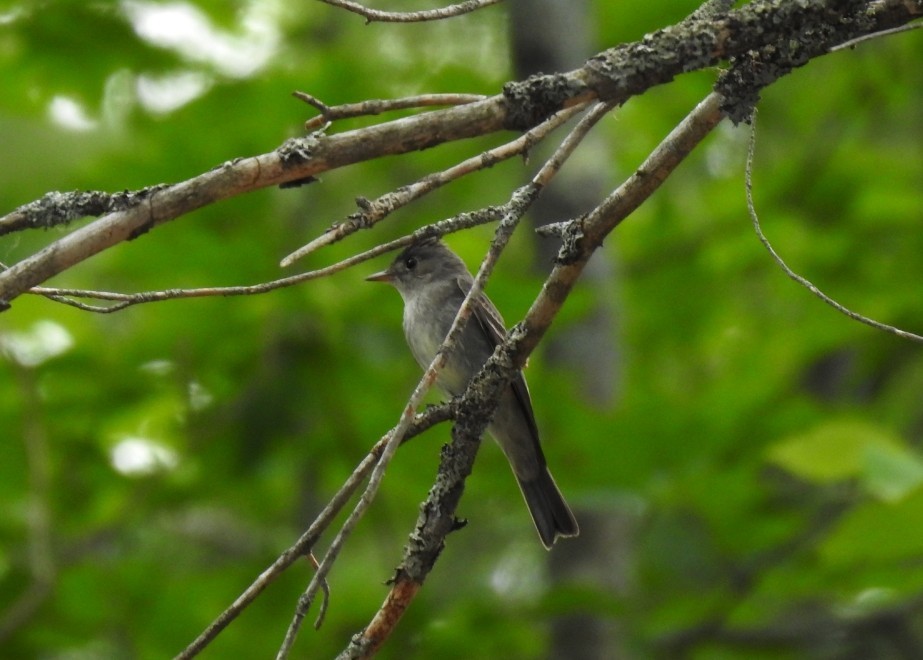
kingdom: Animalia
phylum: Chordata
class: Aves
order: Passeriformes
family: Tyrannidae
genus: Contopus
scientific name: Contopus virens
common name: Eastern wood-pewee
